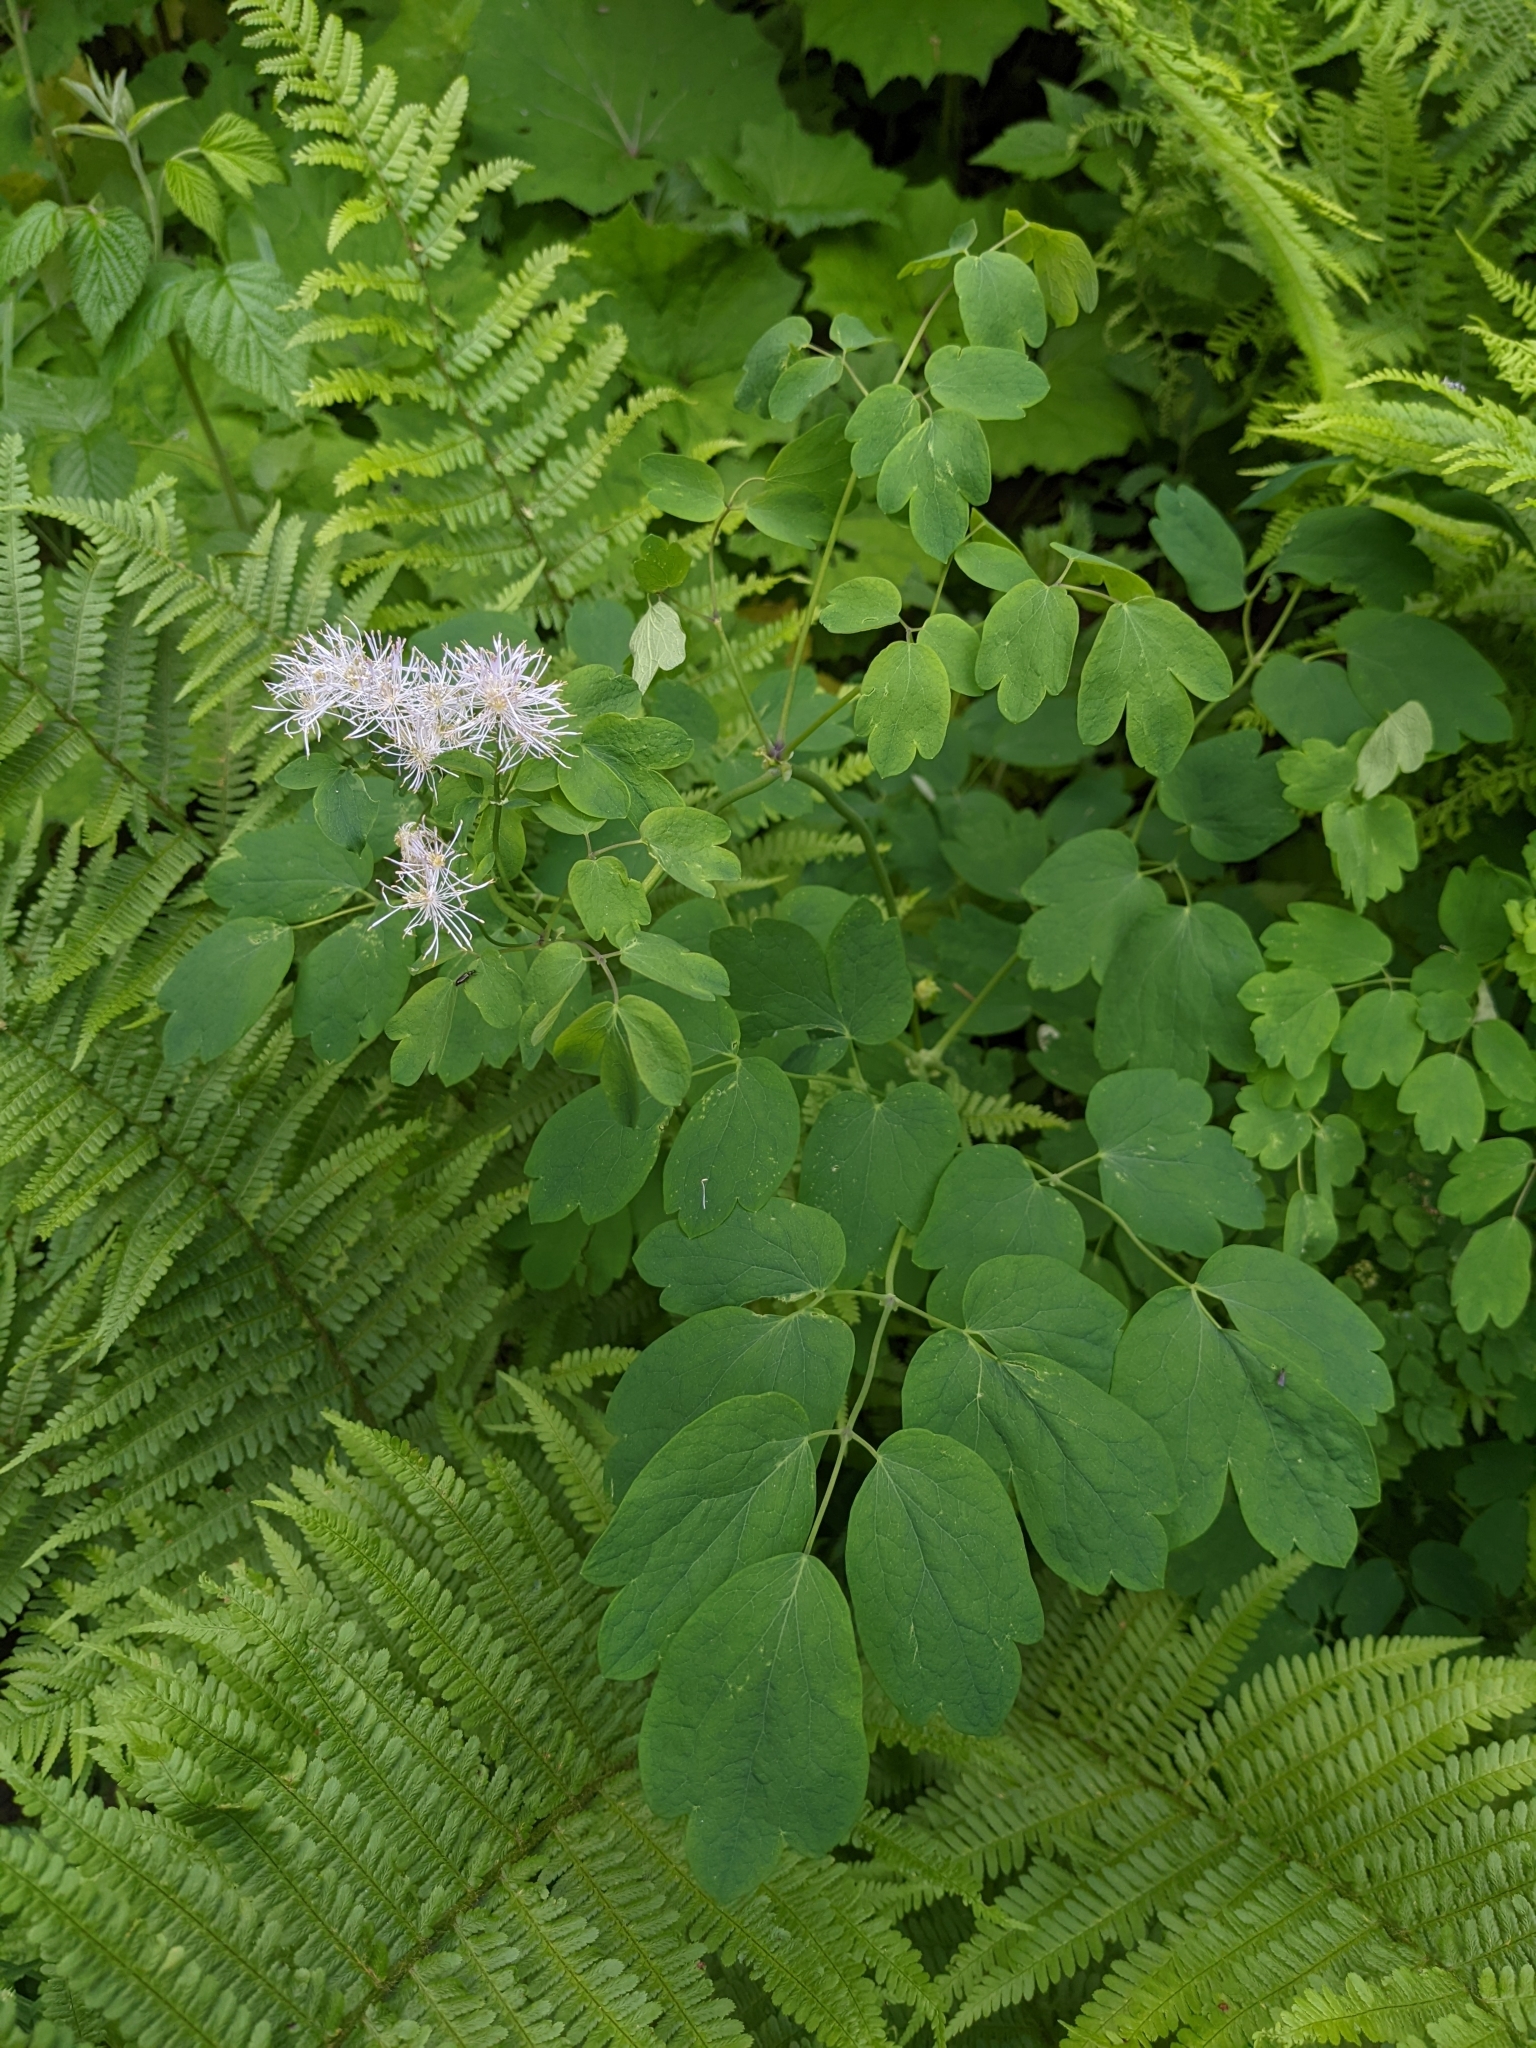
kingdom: Plantae
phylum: Tracheophyta
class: Magnoliopsida
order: Ranunculales
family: Ranunculaceae
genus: Thalictrum
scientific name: Thalictrum aquilegiifolium
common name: French meadow-rue
